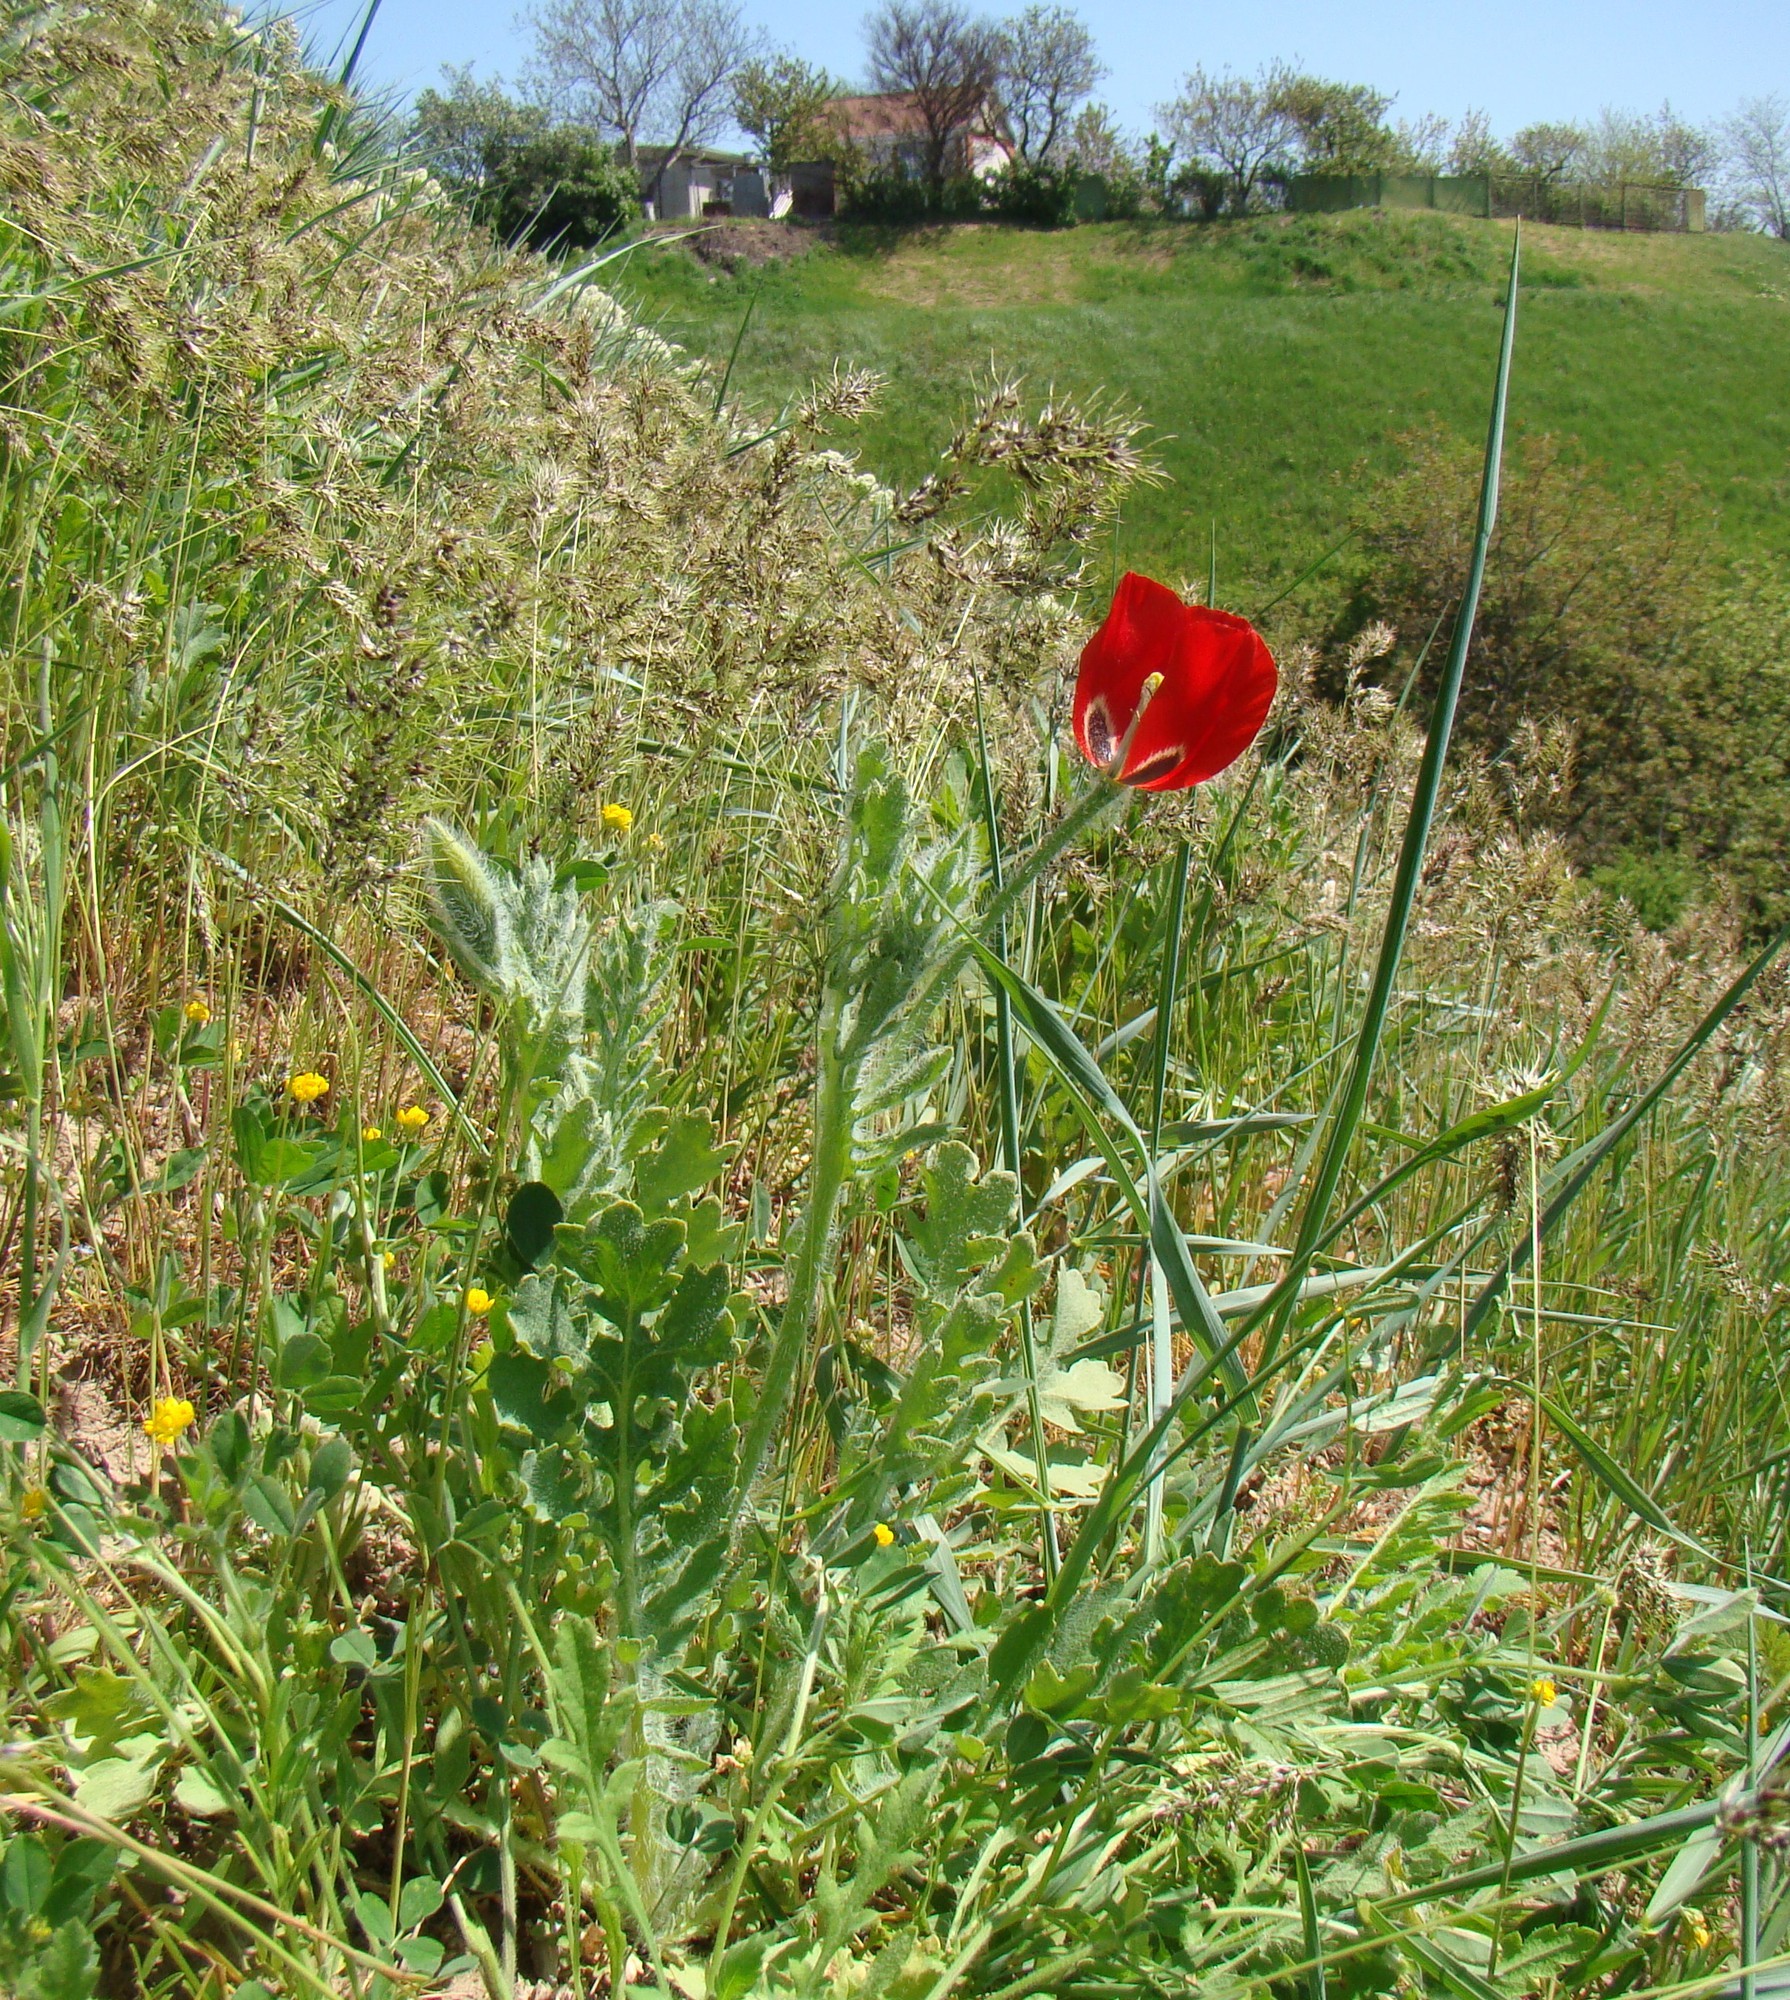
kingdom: Plantae
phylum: Tracheophyta
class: Magnoliopsida
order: Ranunculales
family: Papaveraceae
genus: Glaucium
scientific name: Glaucium corniculatum
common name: Red horned-poppy
